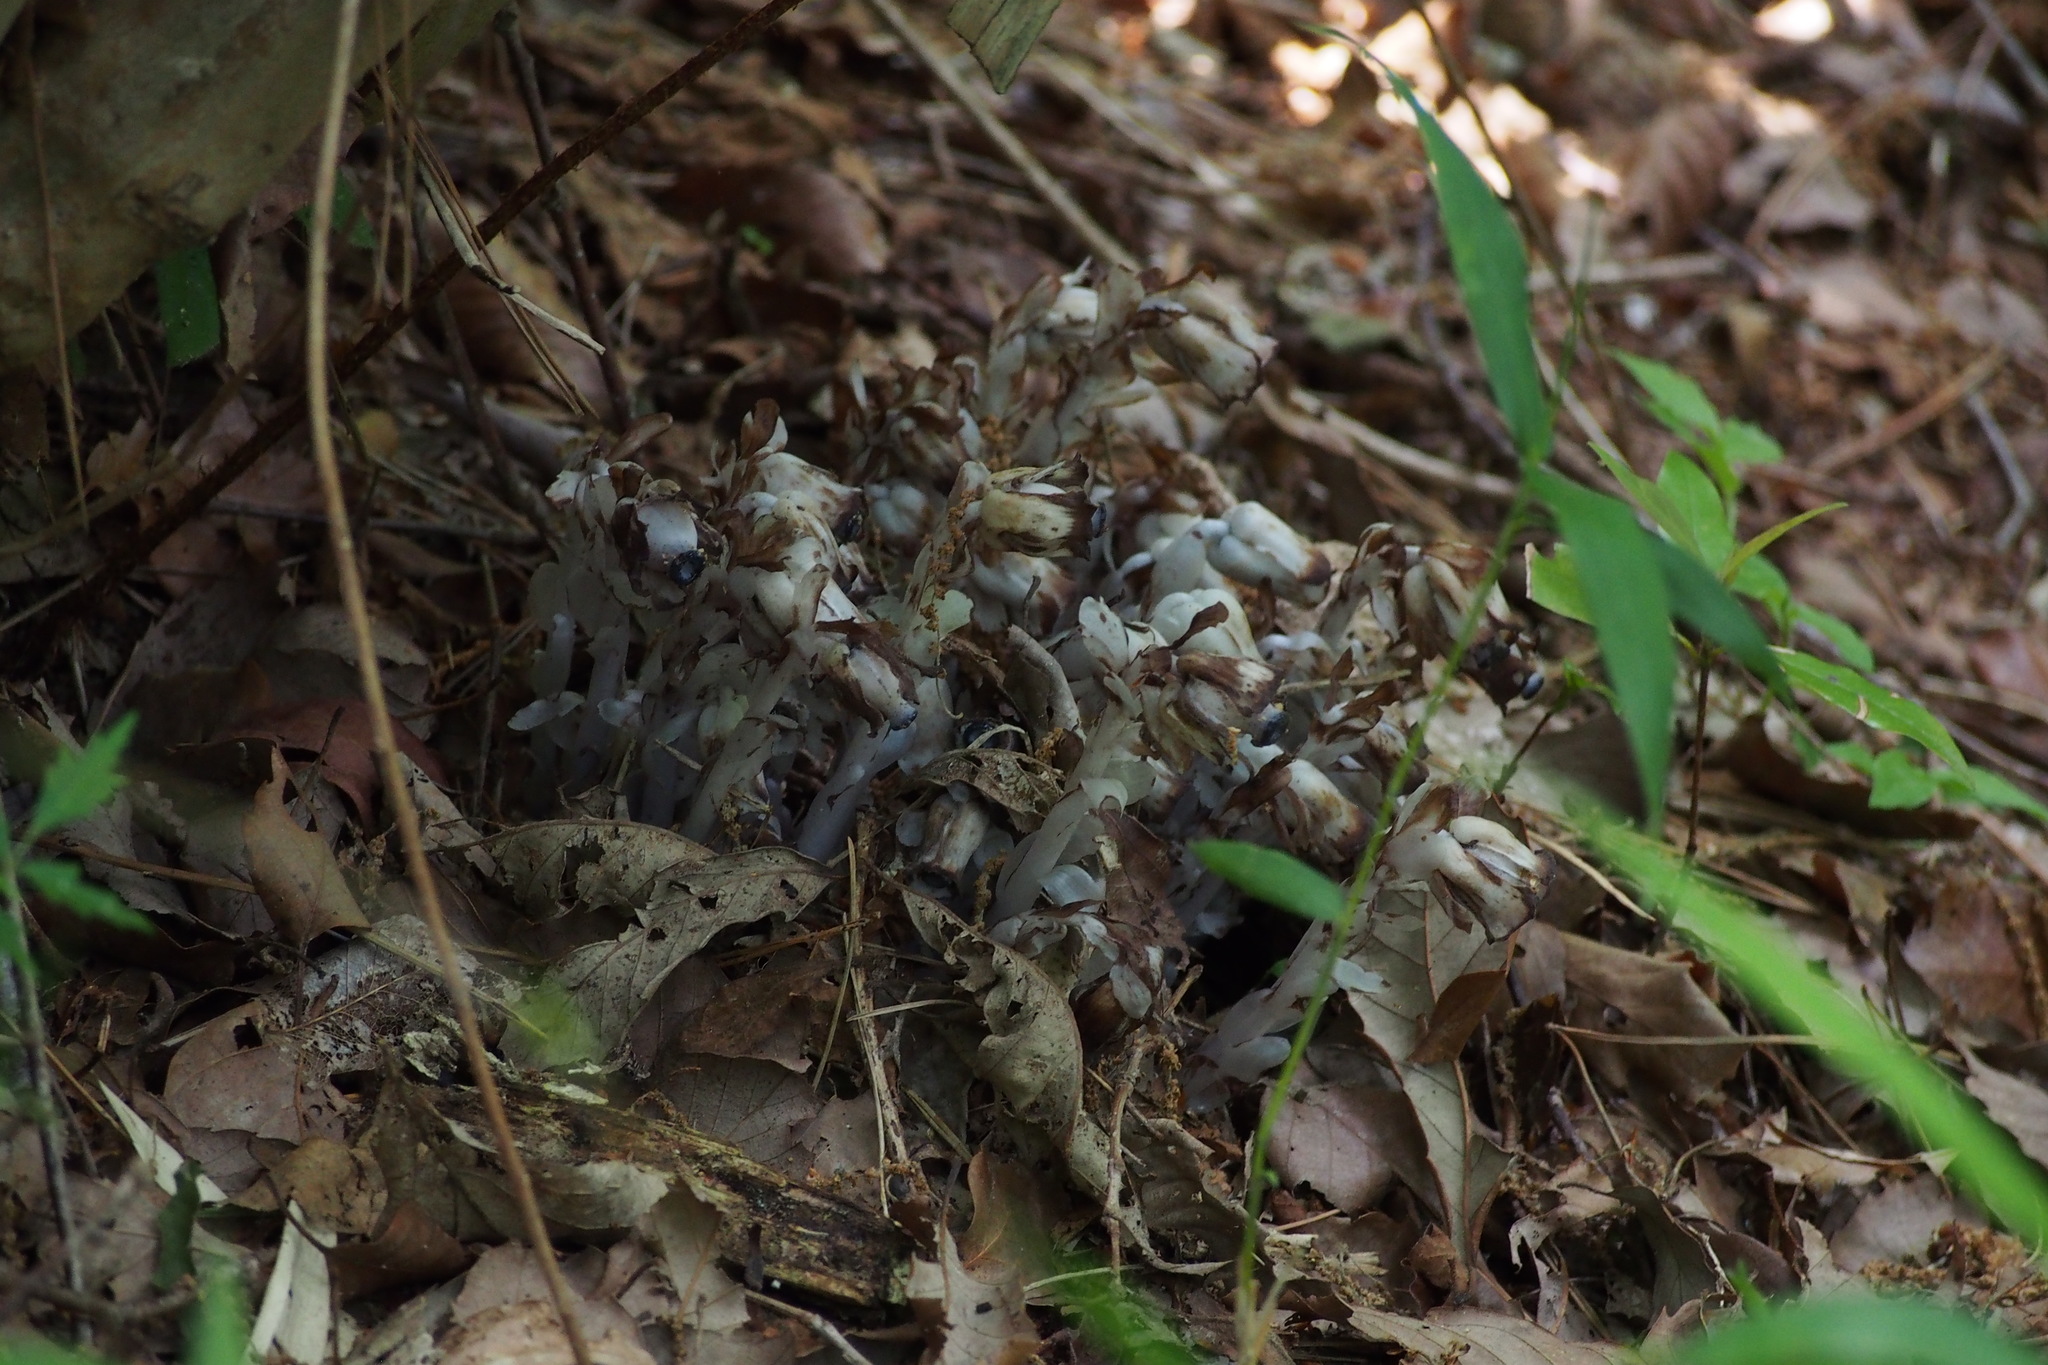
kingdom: Plantae
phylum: Tracheophyta
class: Magnoliopsida
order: Ericales
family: Ericaceae
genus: Monotropastrum
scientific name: Monotropastrum humile
